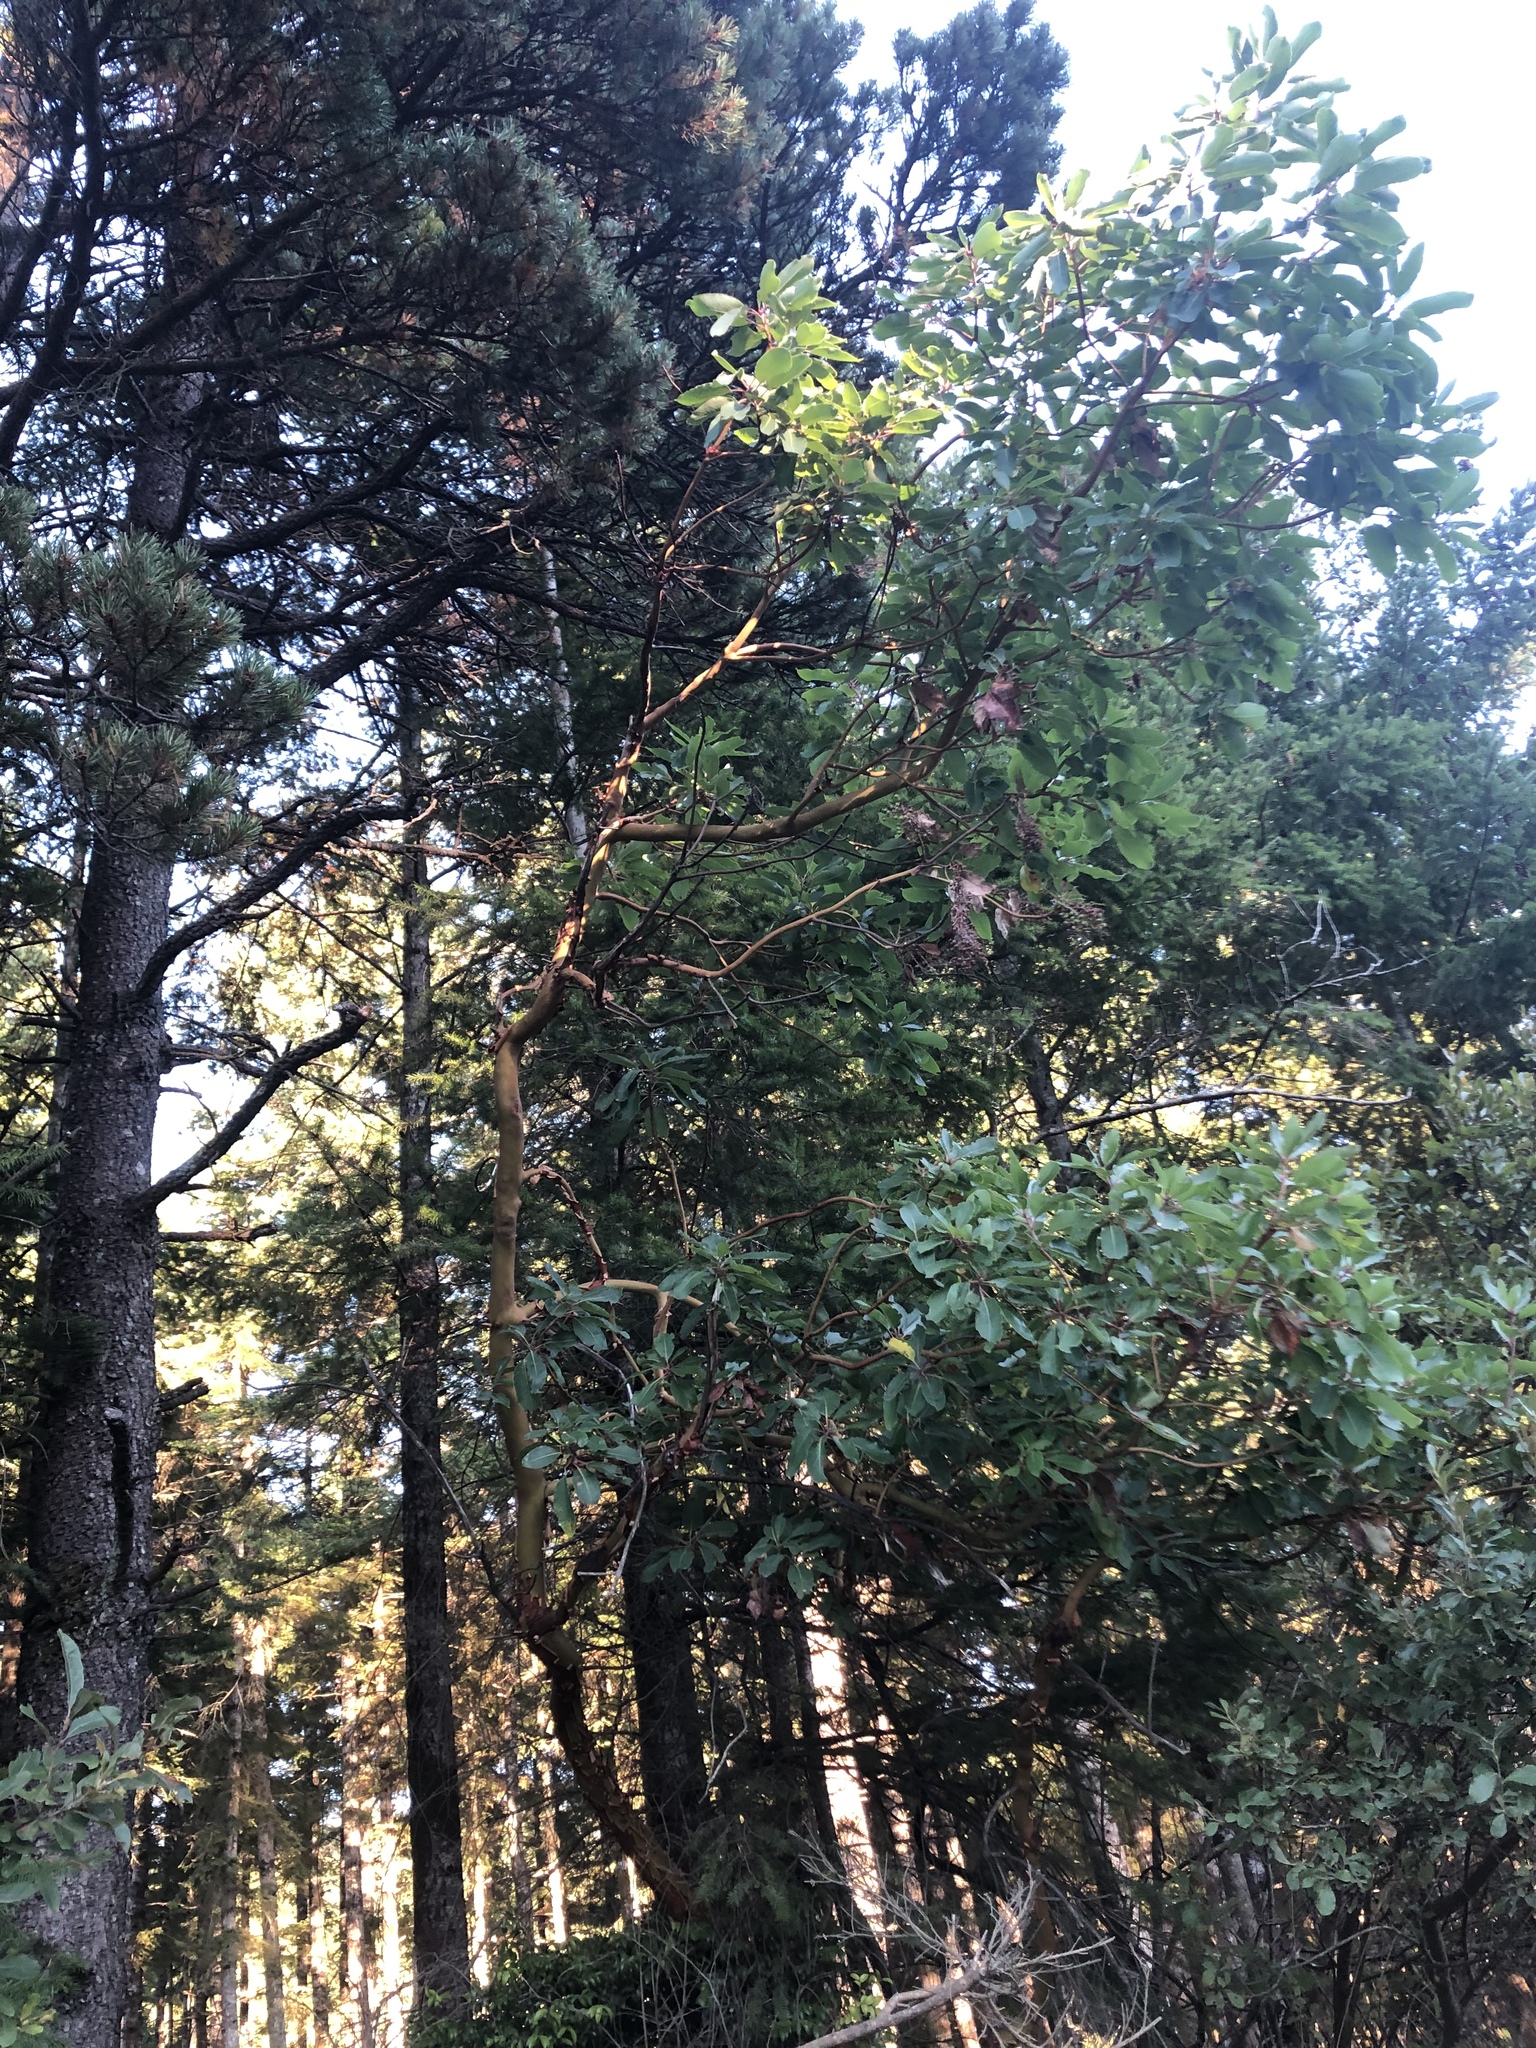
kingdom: Plantae
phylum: Tracheophyta
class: Magnoliopsida
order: Ericales
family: Ericaceae
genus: Arbutus
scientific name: Arbutus menziesii
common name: Pacific madrone
